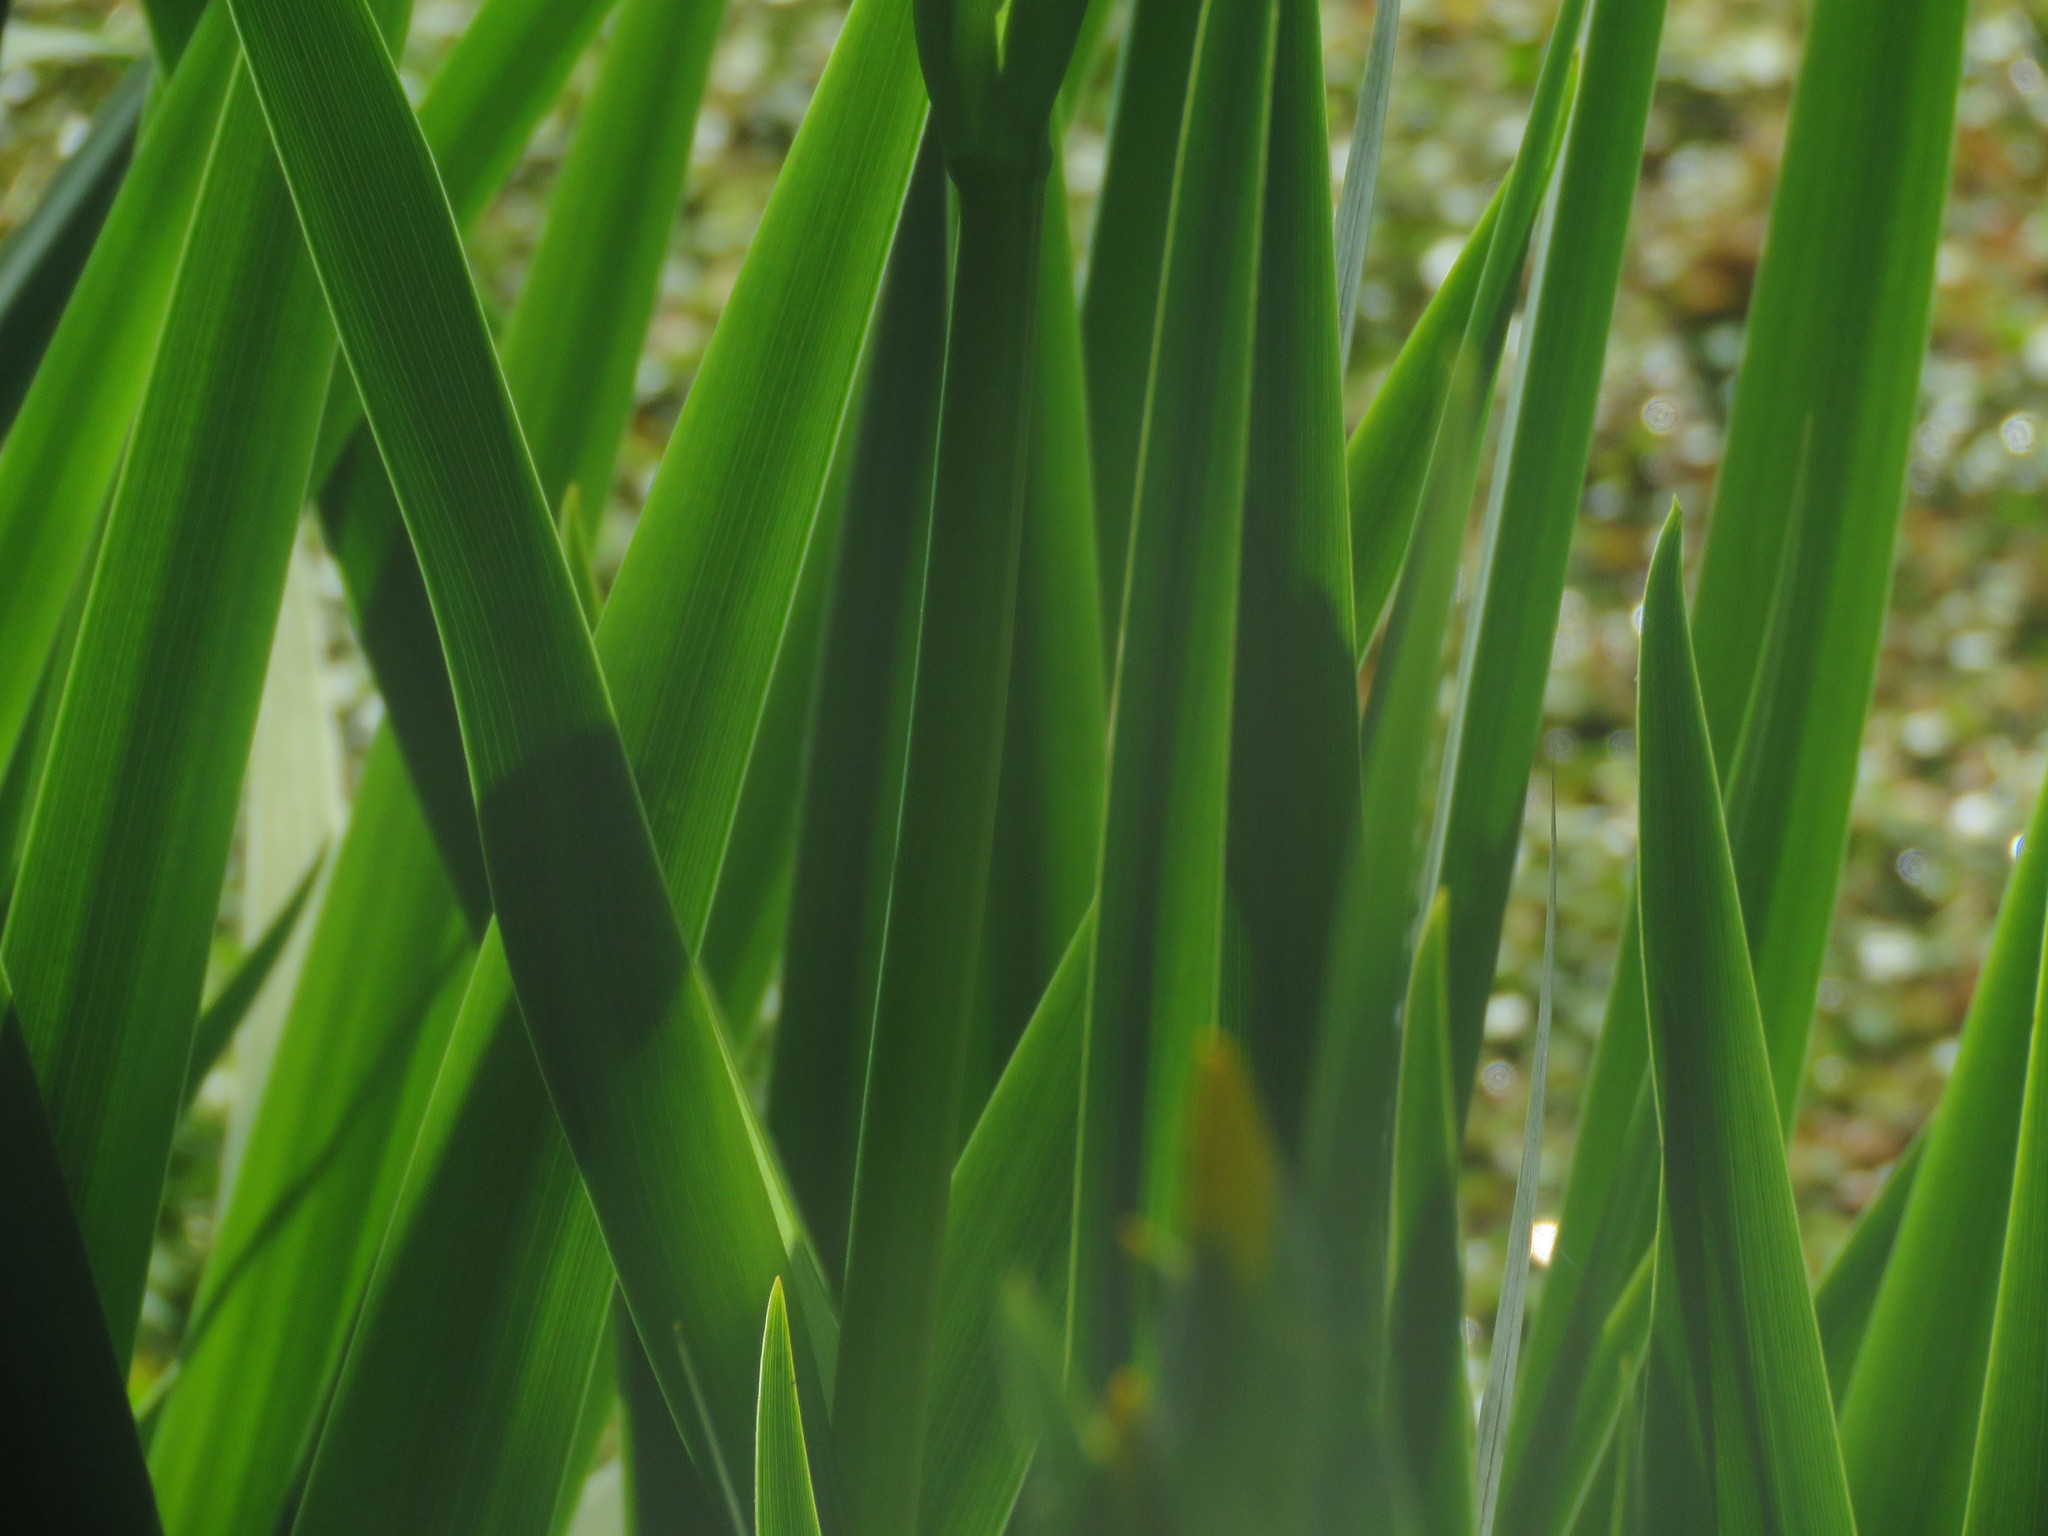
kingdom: Plantae
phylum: Tracheophyta
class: Liliopsida
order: Asparagales
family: Iridaceae
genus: Iris
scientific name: Iris pseudacorus
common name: Yellow flag
